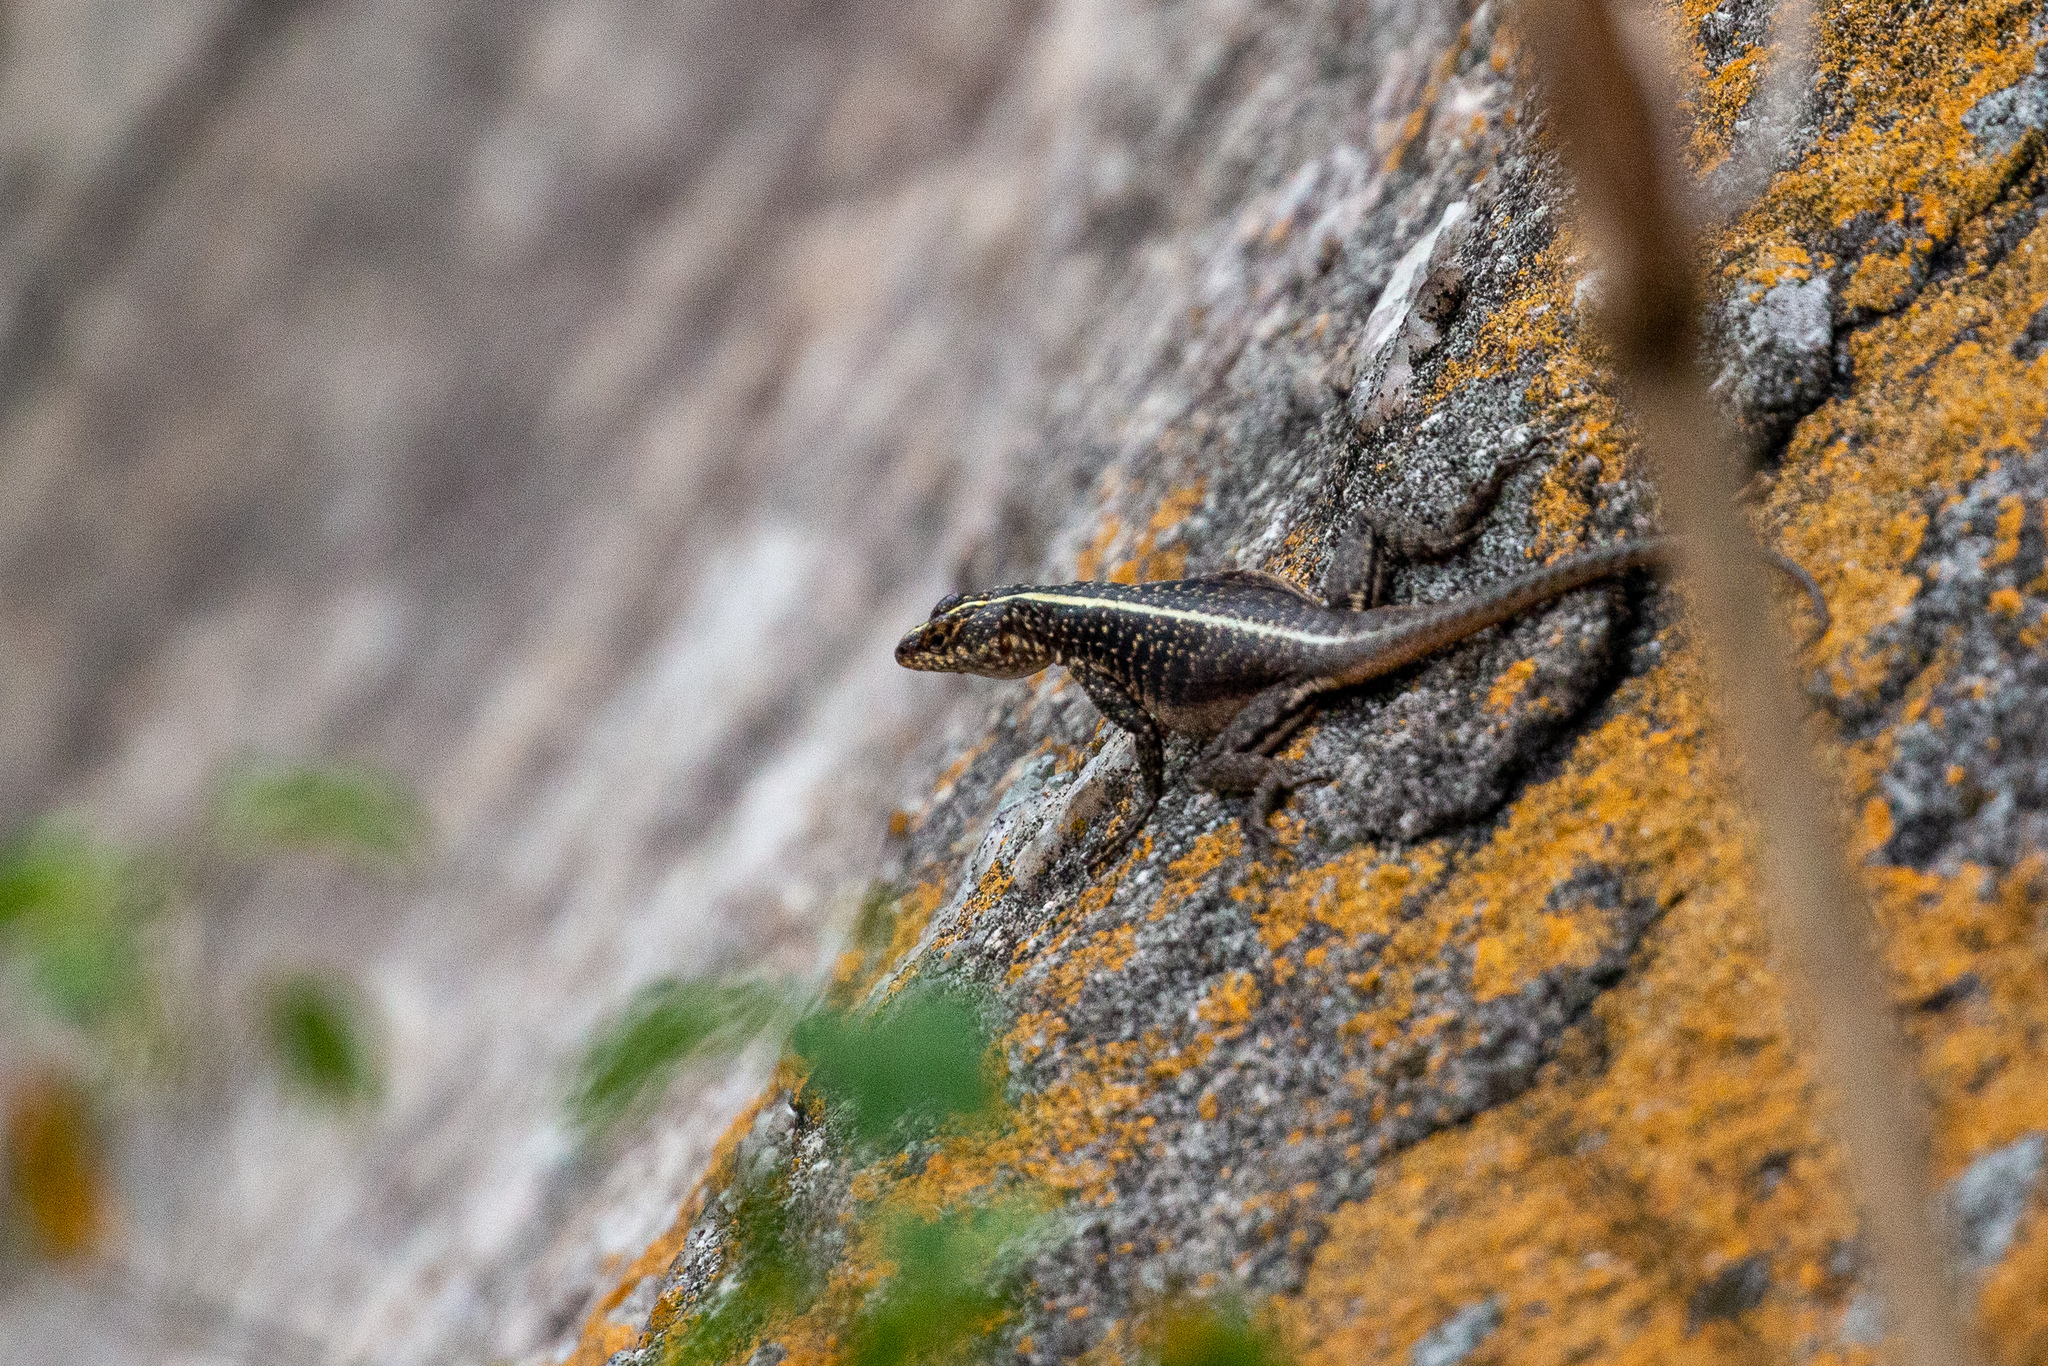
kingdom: Animalia
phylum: Chordata
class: Squamata
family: Tropiduridae
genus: Tropidurus
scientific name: Tropidurus semitaeniatus
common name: Striped lava lizard
